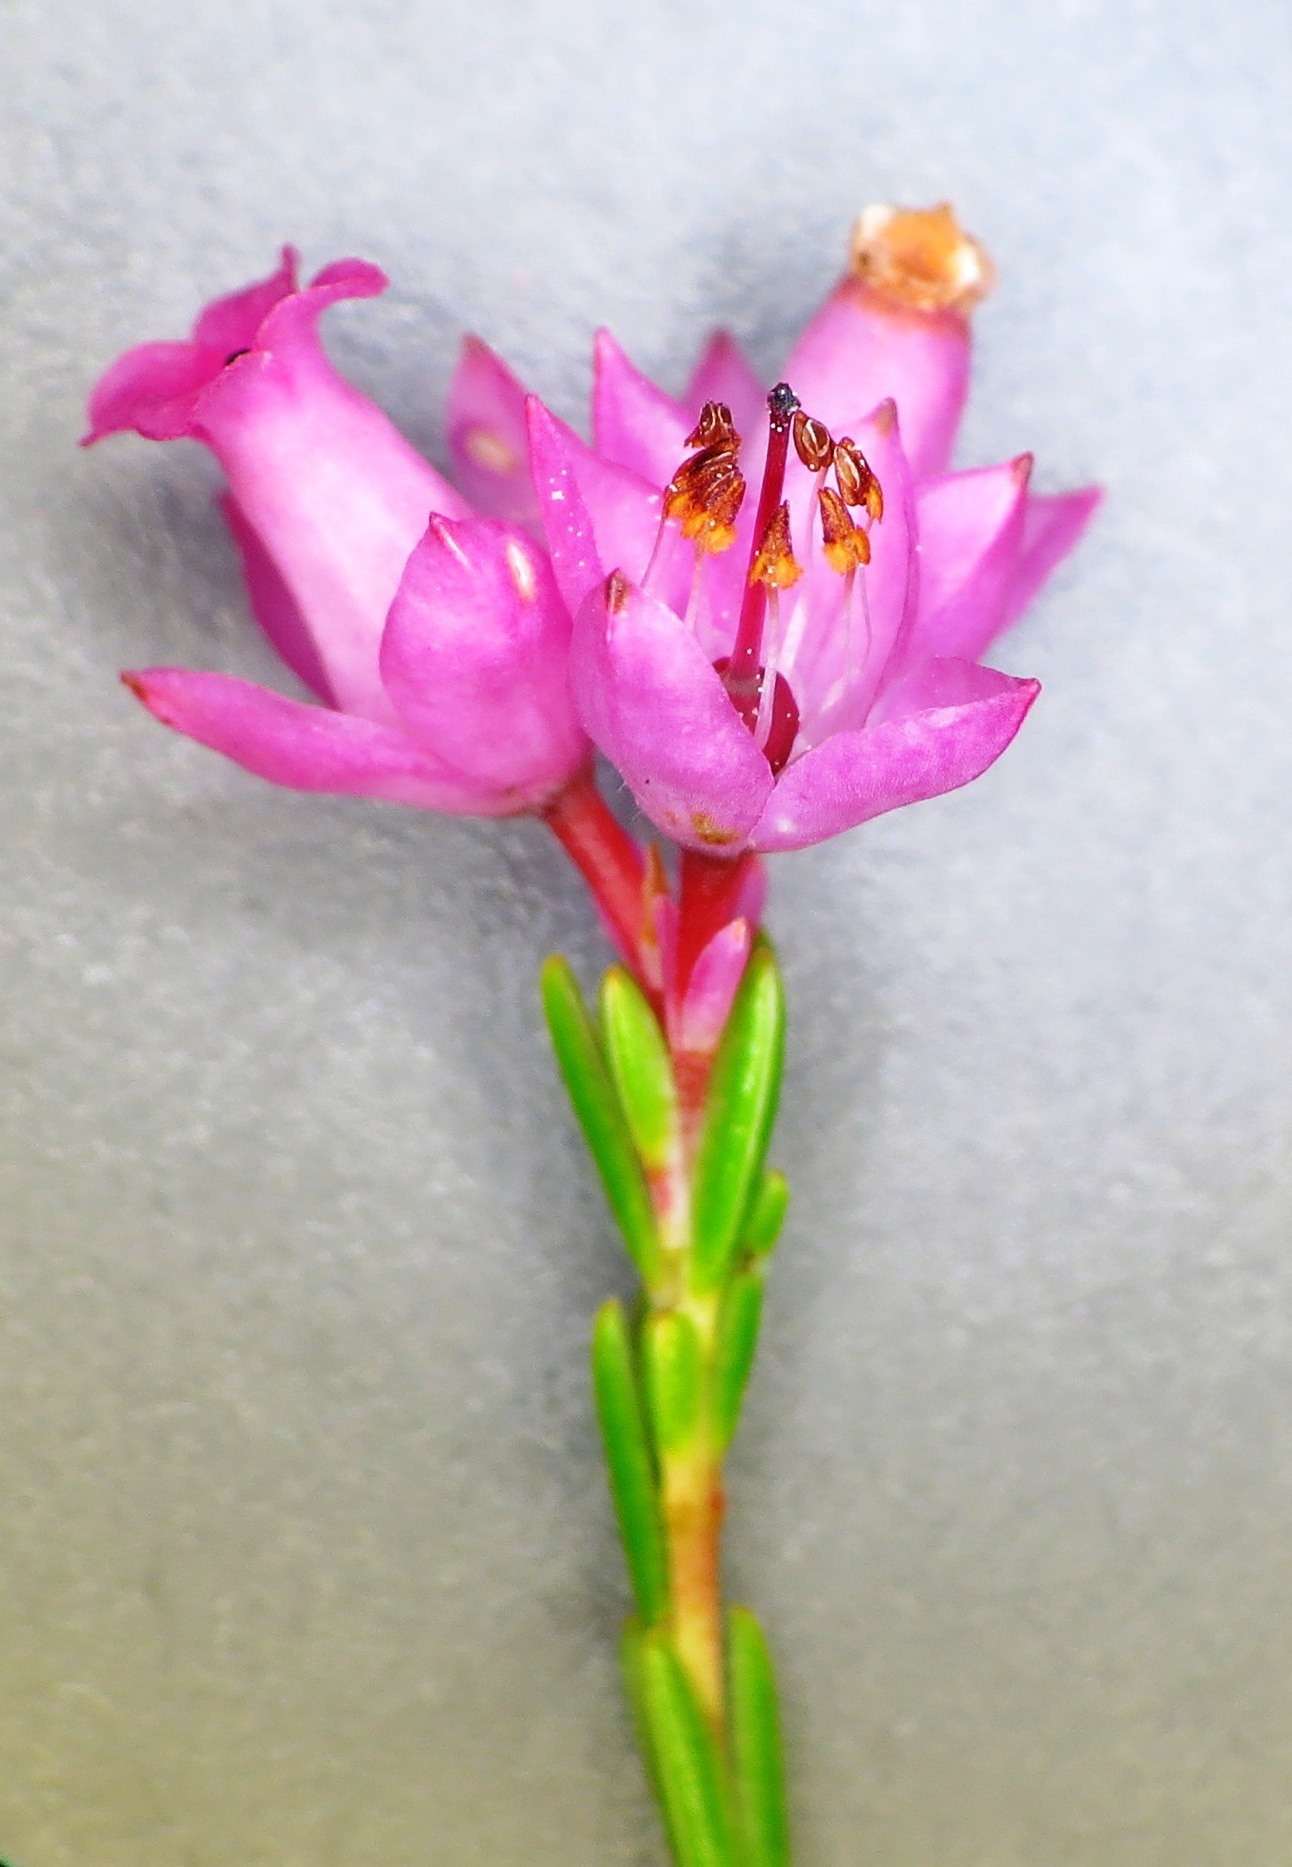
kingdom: Plantae
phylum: Tracheophyta
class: Magnoliopsida
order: Ericales
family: Ericaceae
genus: Erica
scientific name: Erica vogelpoelii
